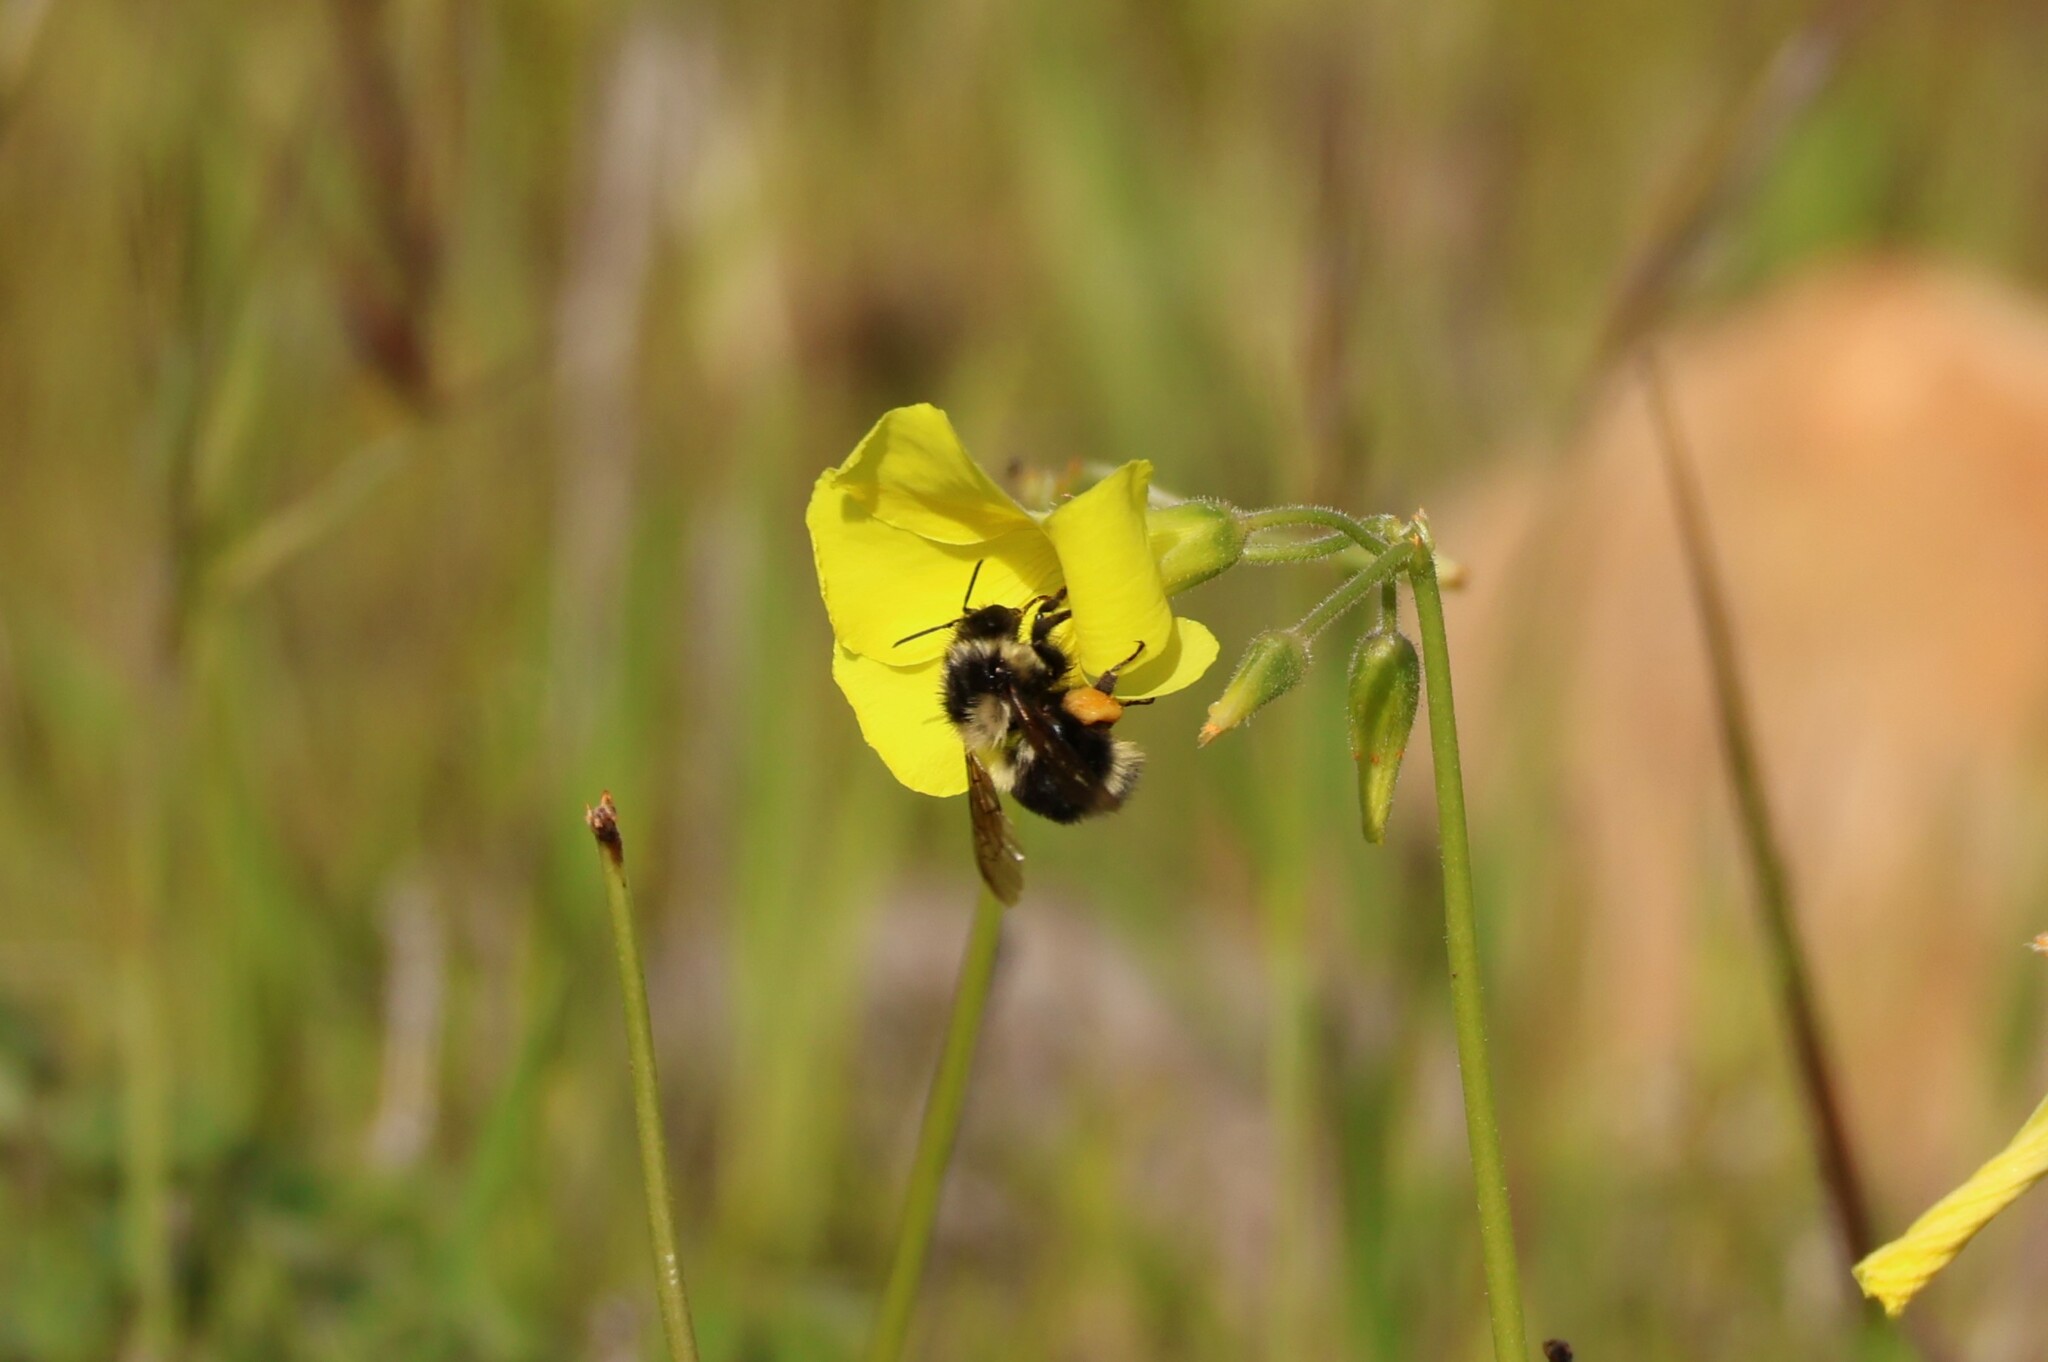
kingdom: Animalia
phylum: Arthropoda
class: Insecta
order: Hymenoptera
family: Apidae
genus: Bombus
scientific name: Bombus melanopygus
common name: Black tail bumble bee
